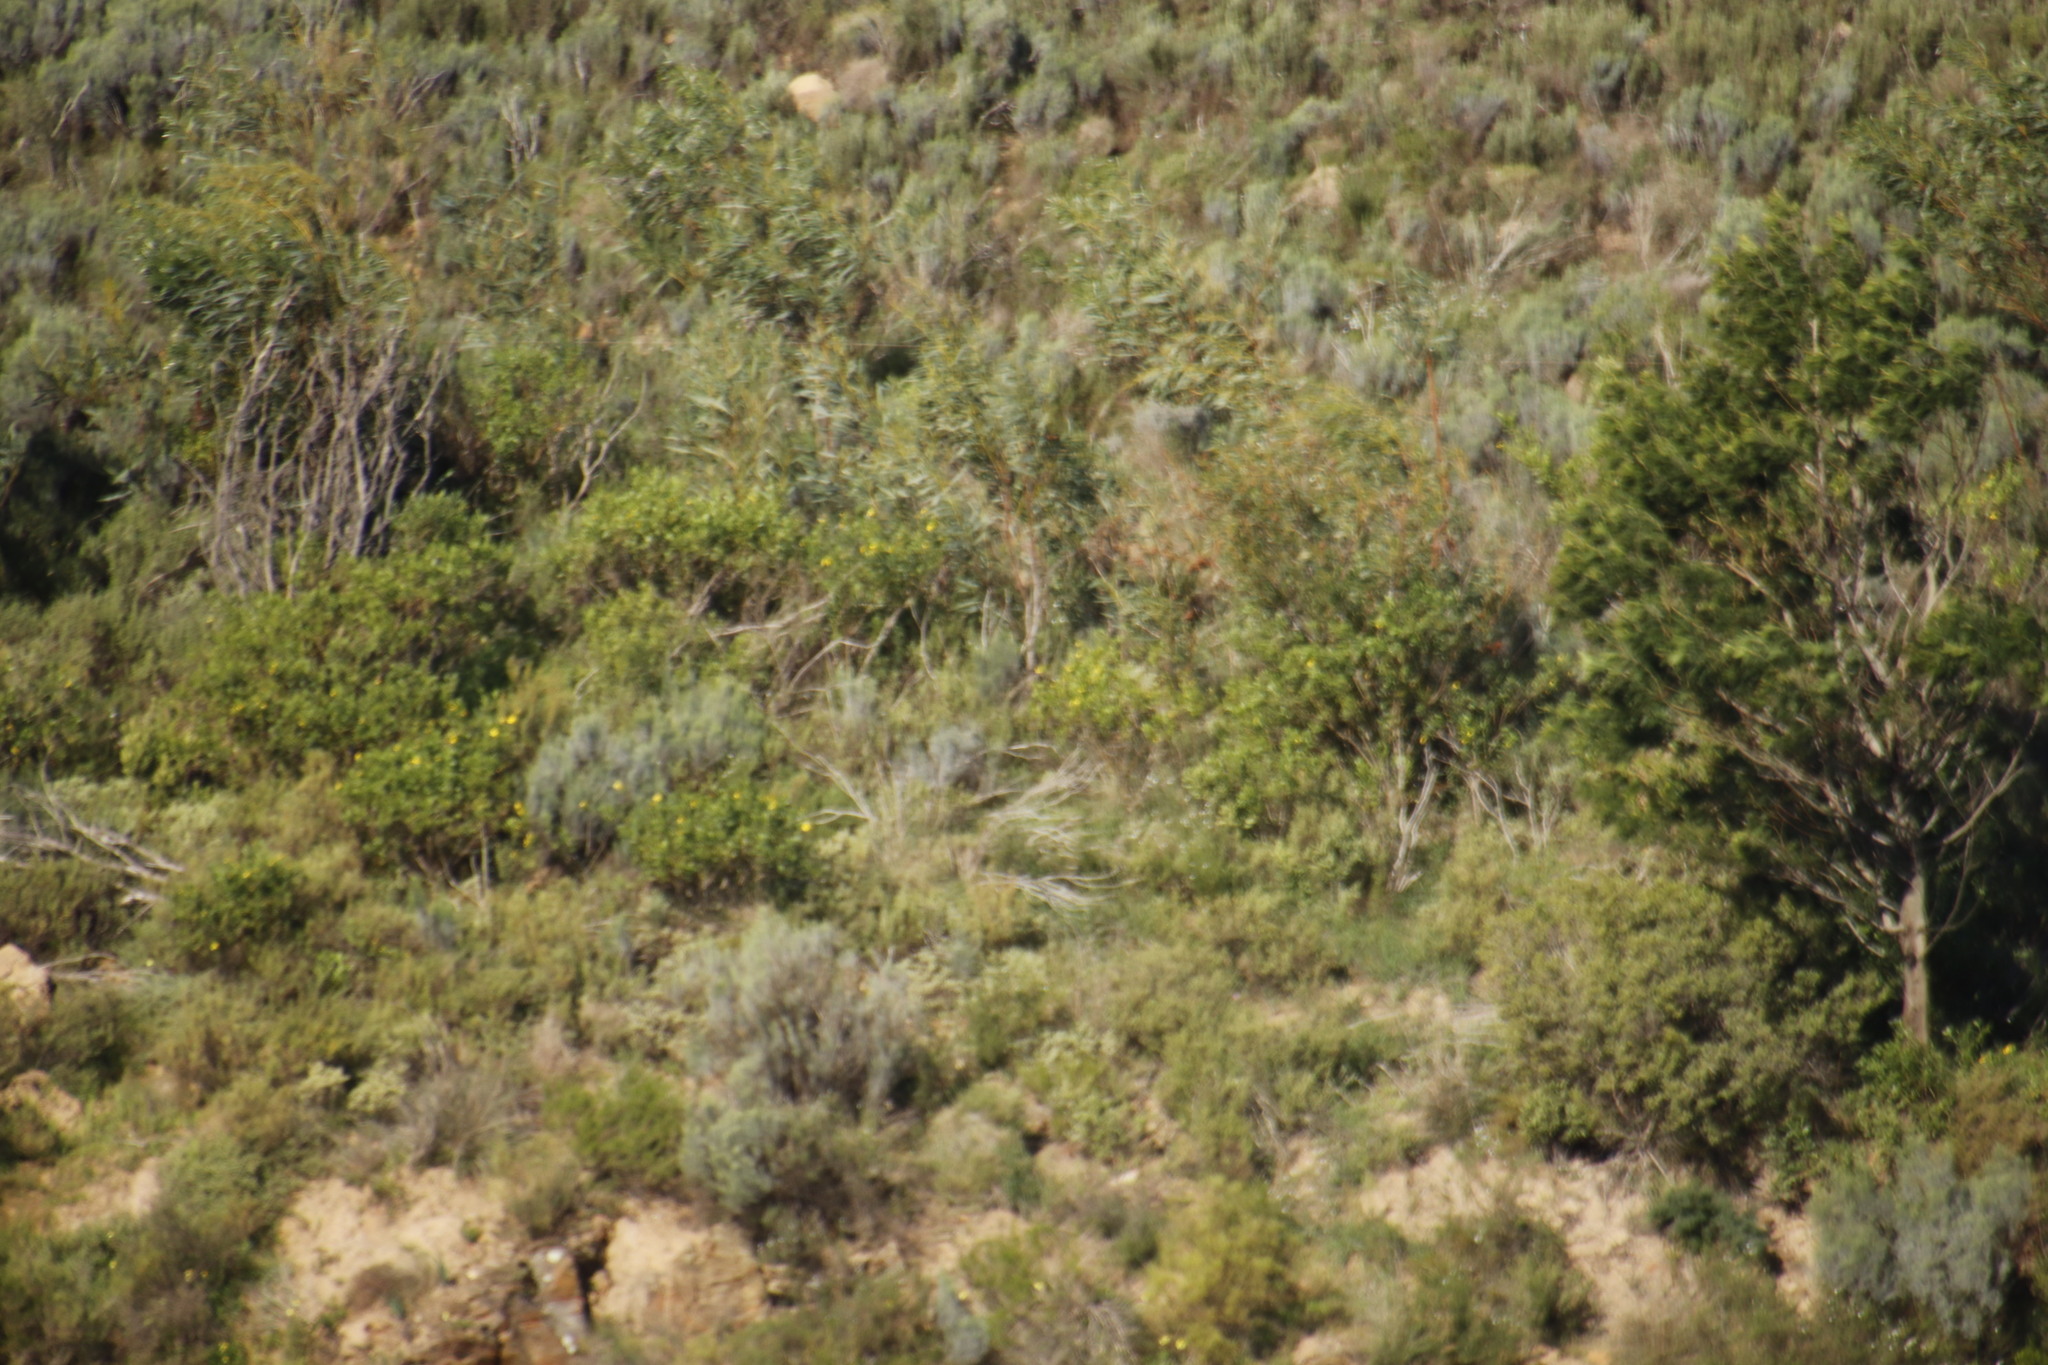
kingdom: Plantae
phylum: Tracheophyta
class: Magnoliopsida
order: Fabales
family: Fabaceae
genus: Acacia
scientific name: Acacia saligna
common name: Orange wattle
